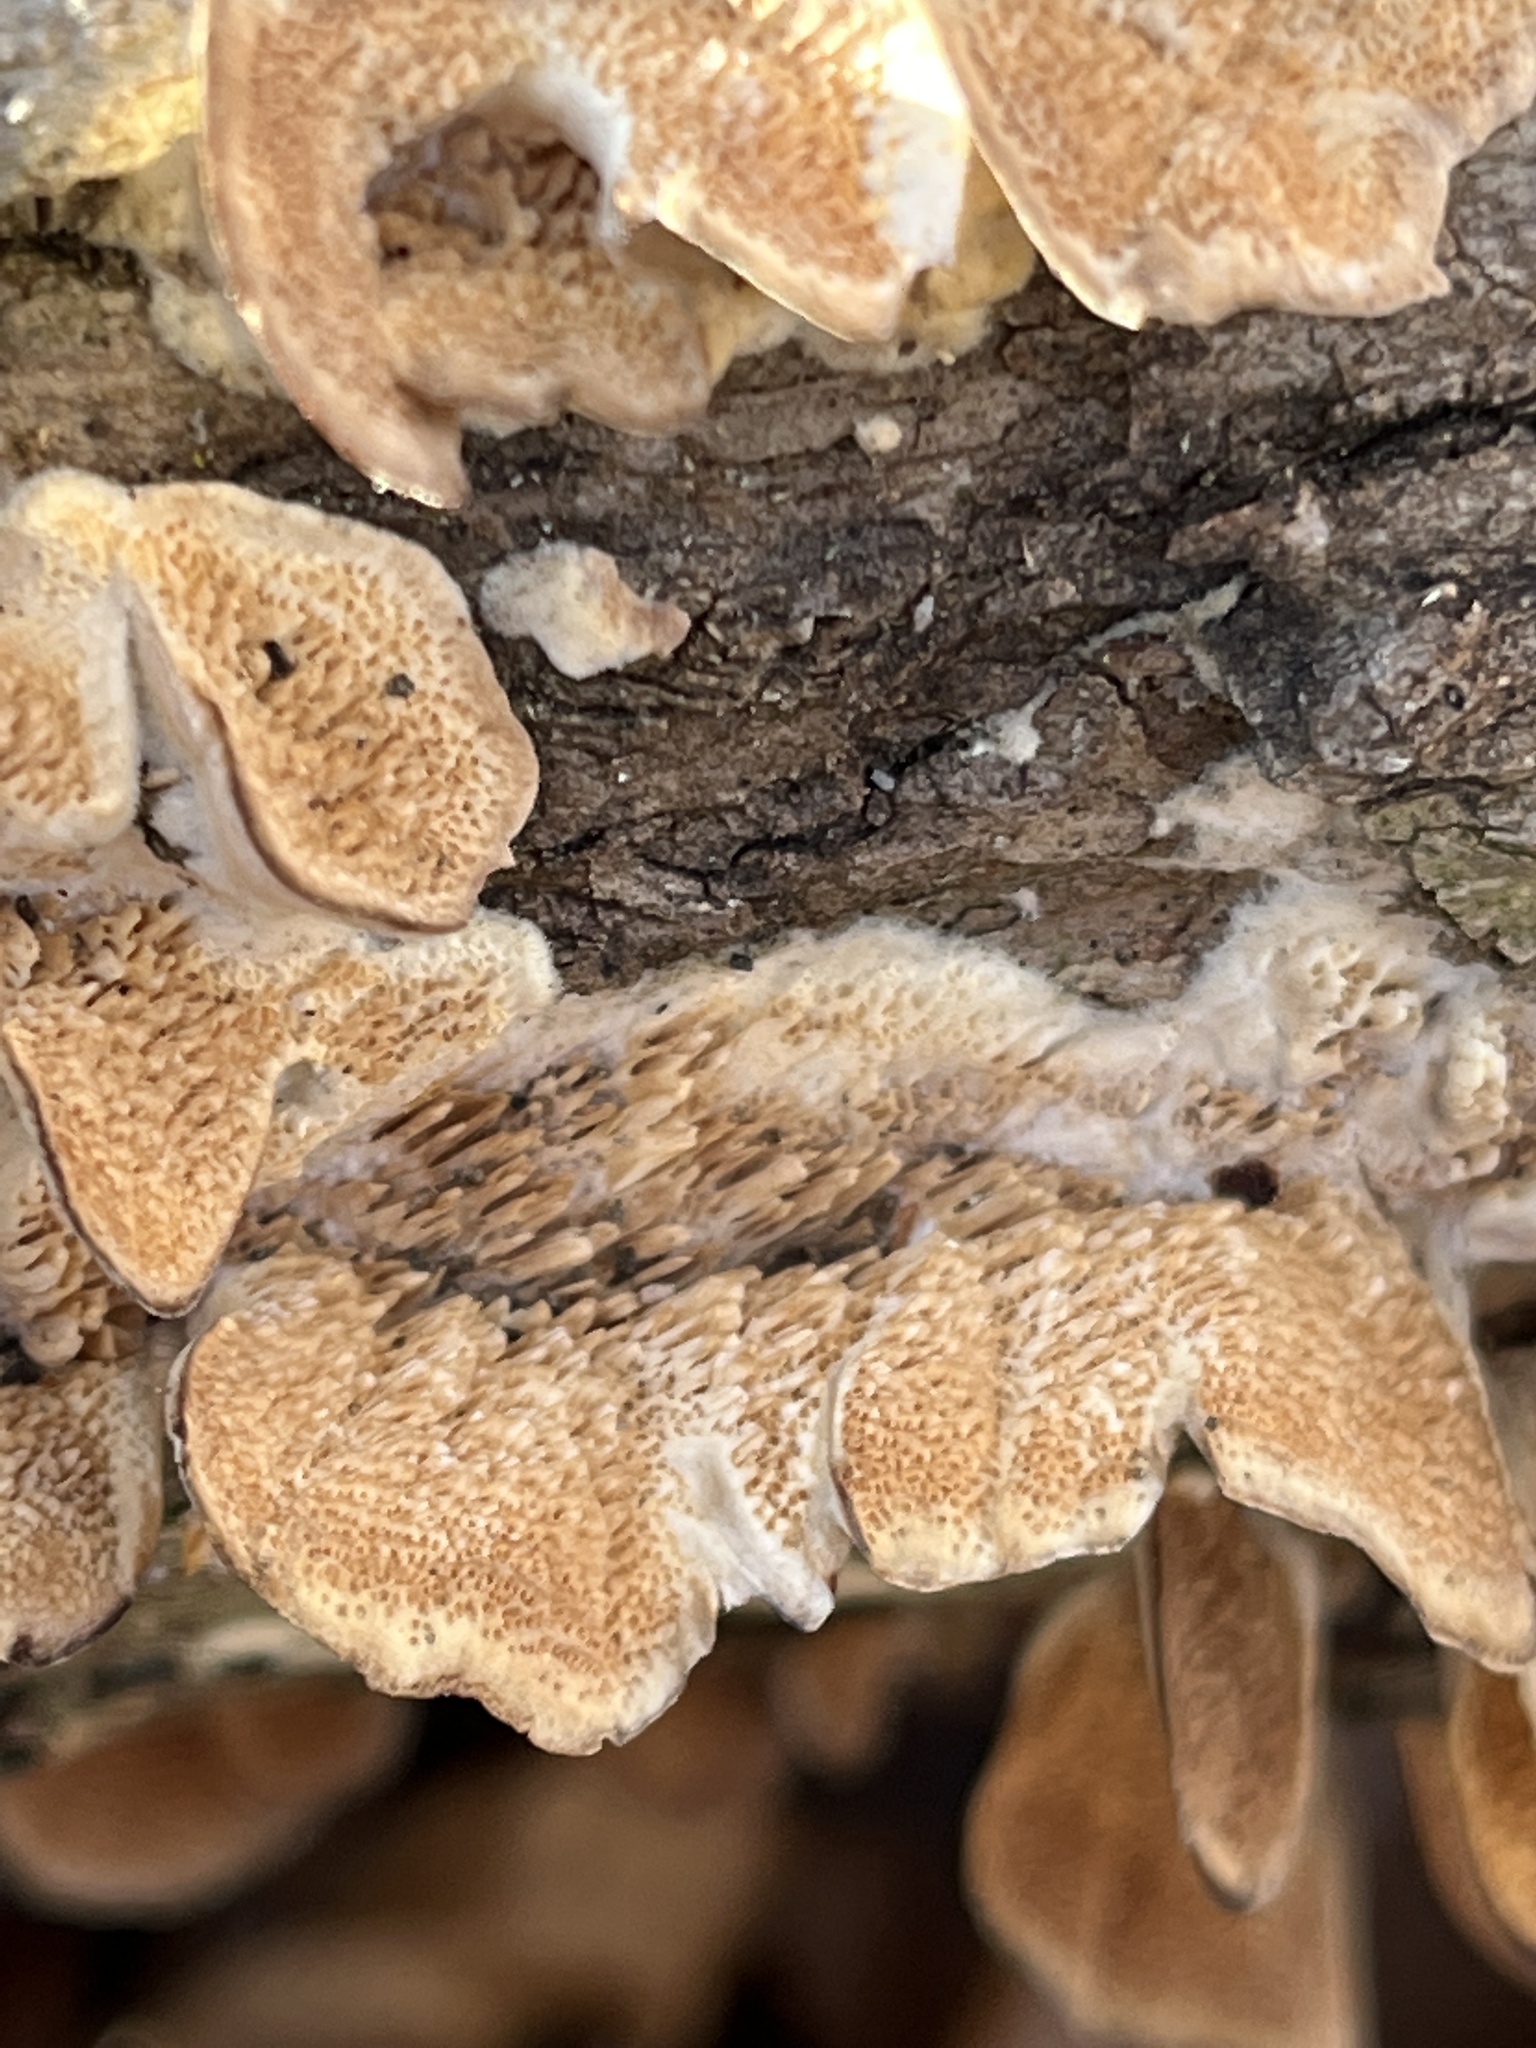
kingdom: Fungi
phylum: Basidiomycota
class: Agaricomycetes
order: Hymenochaetales
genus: Trichaptum
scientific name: Trichaptum biforme
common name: Violet-toothed polypore
